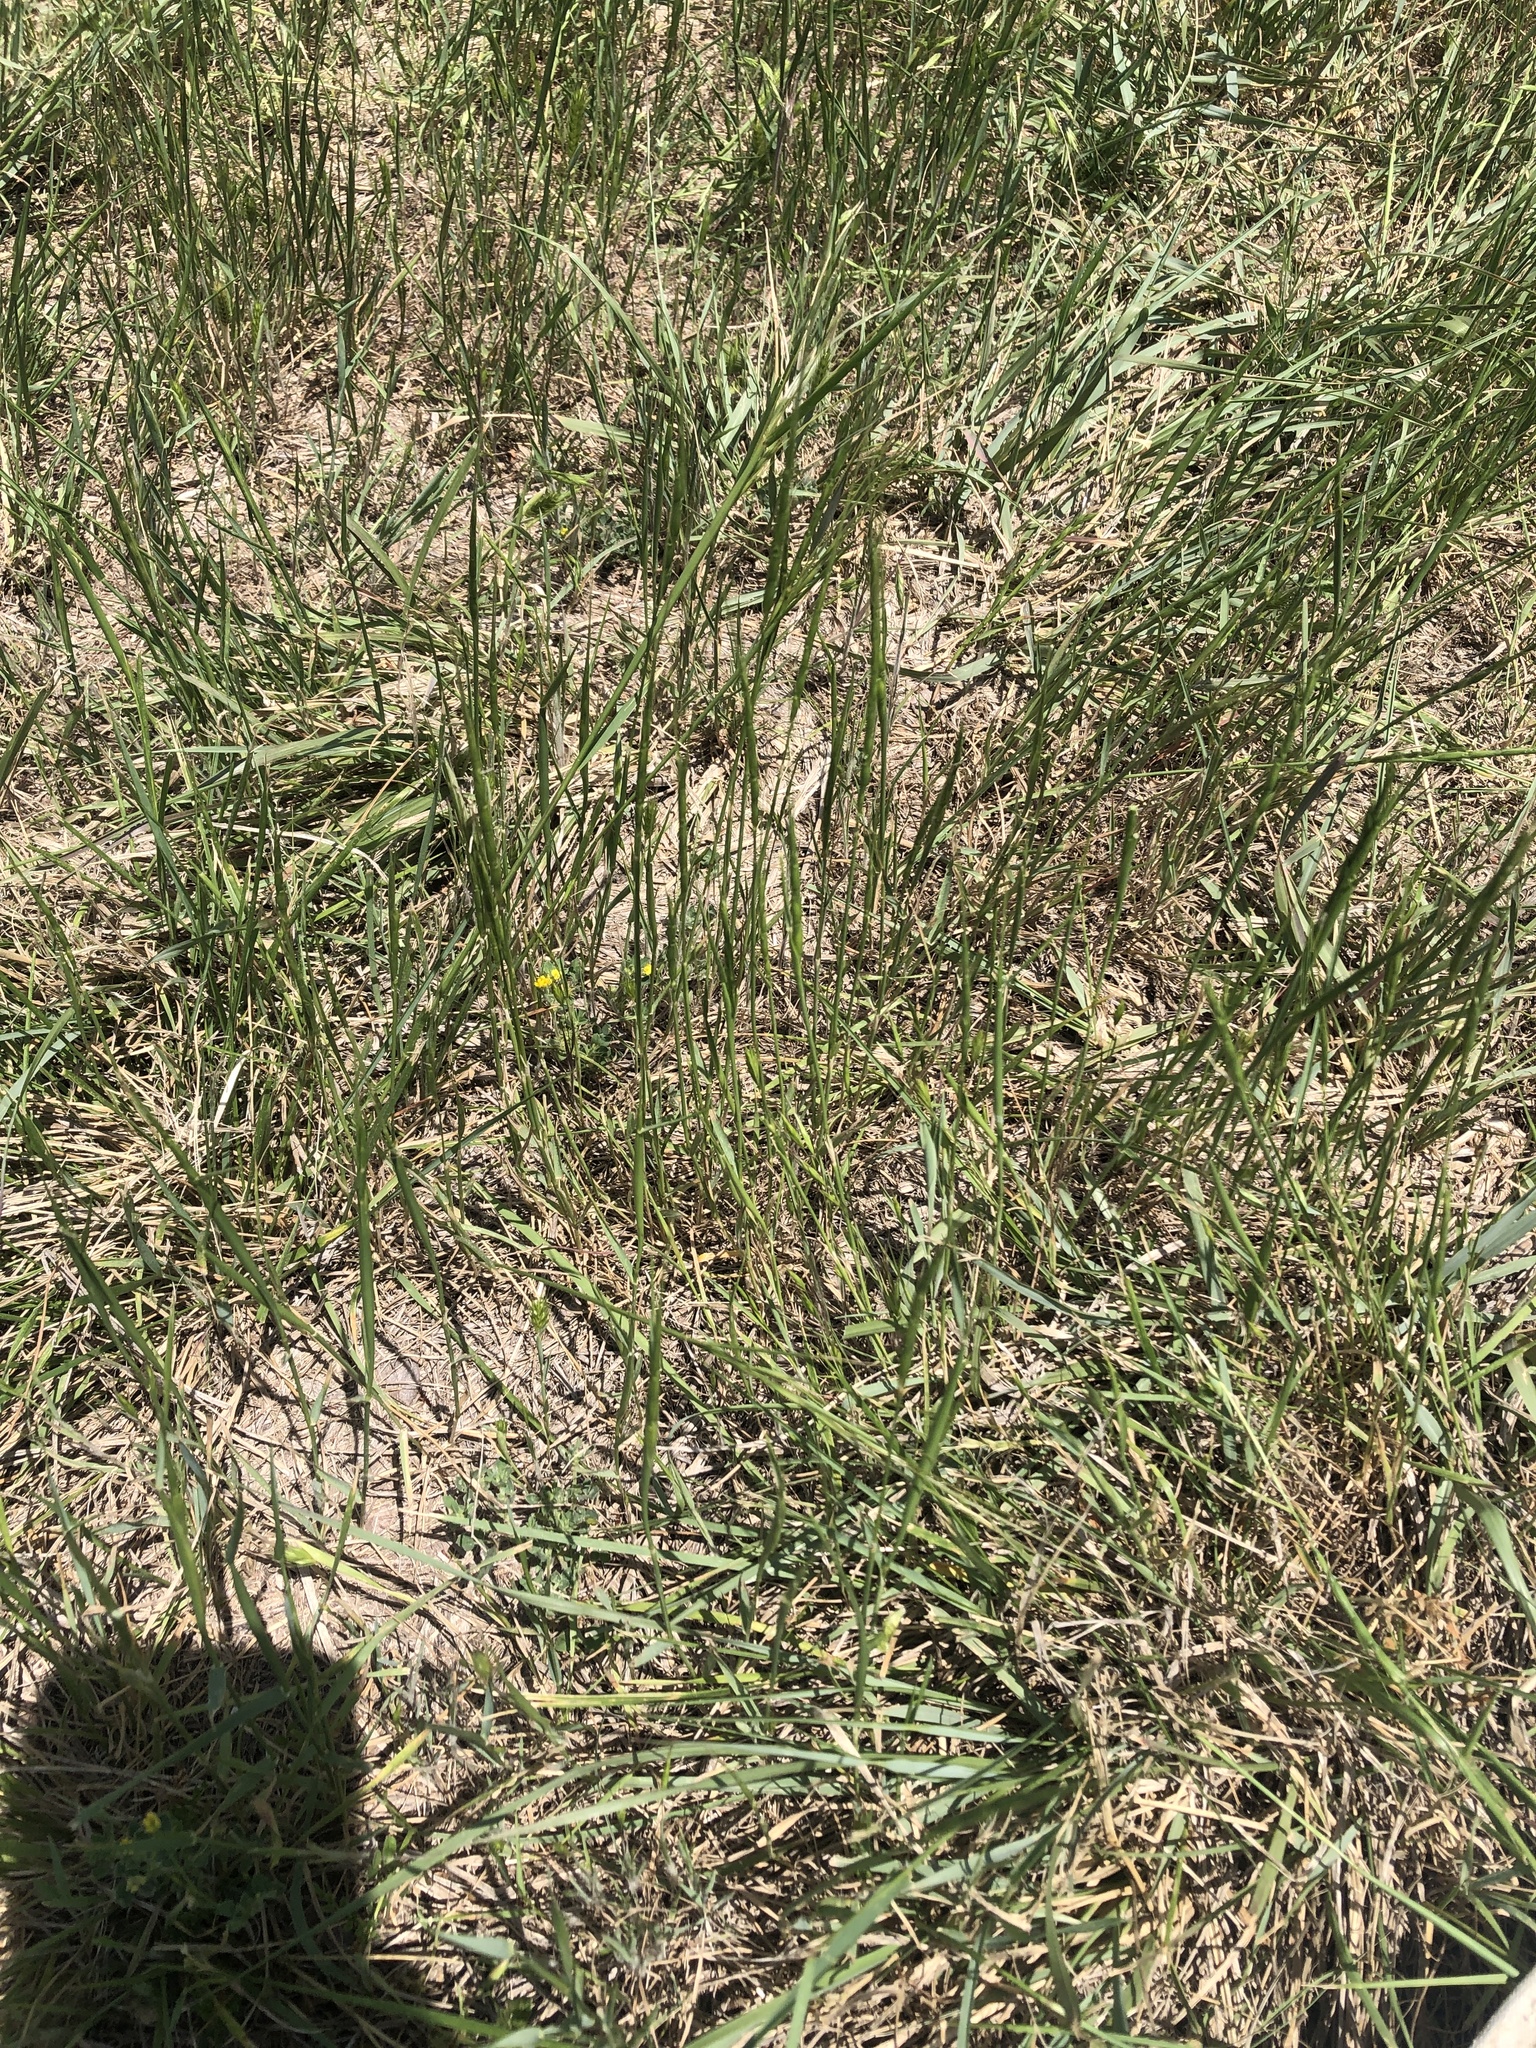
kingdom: Plantae
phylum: Tracheophyta
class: Liliopsida
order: Poales
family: Poaceae
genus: Aegilops
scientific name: Aegilops cylindrica
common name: Jointed goatgrass
